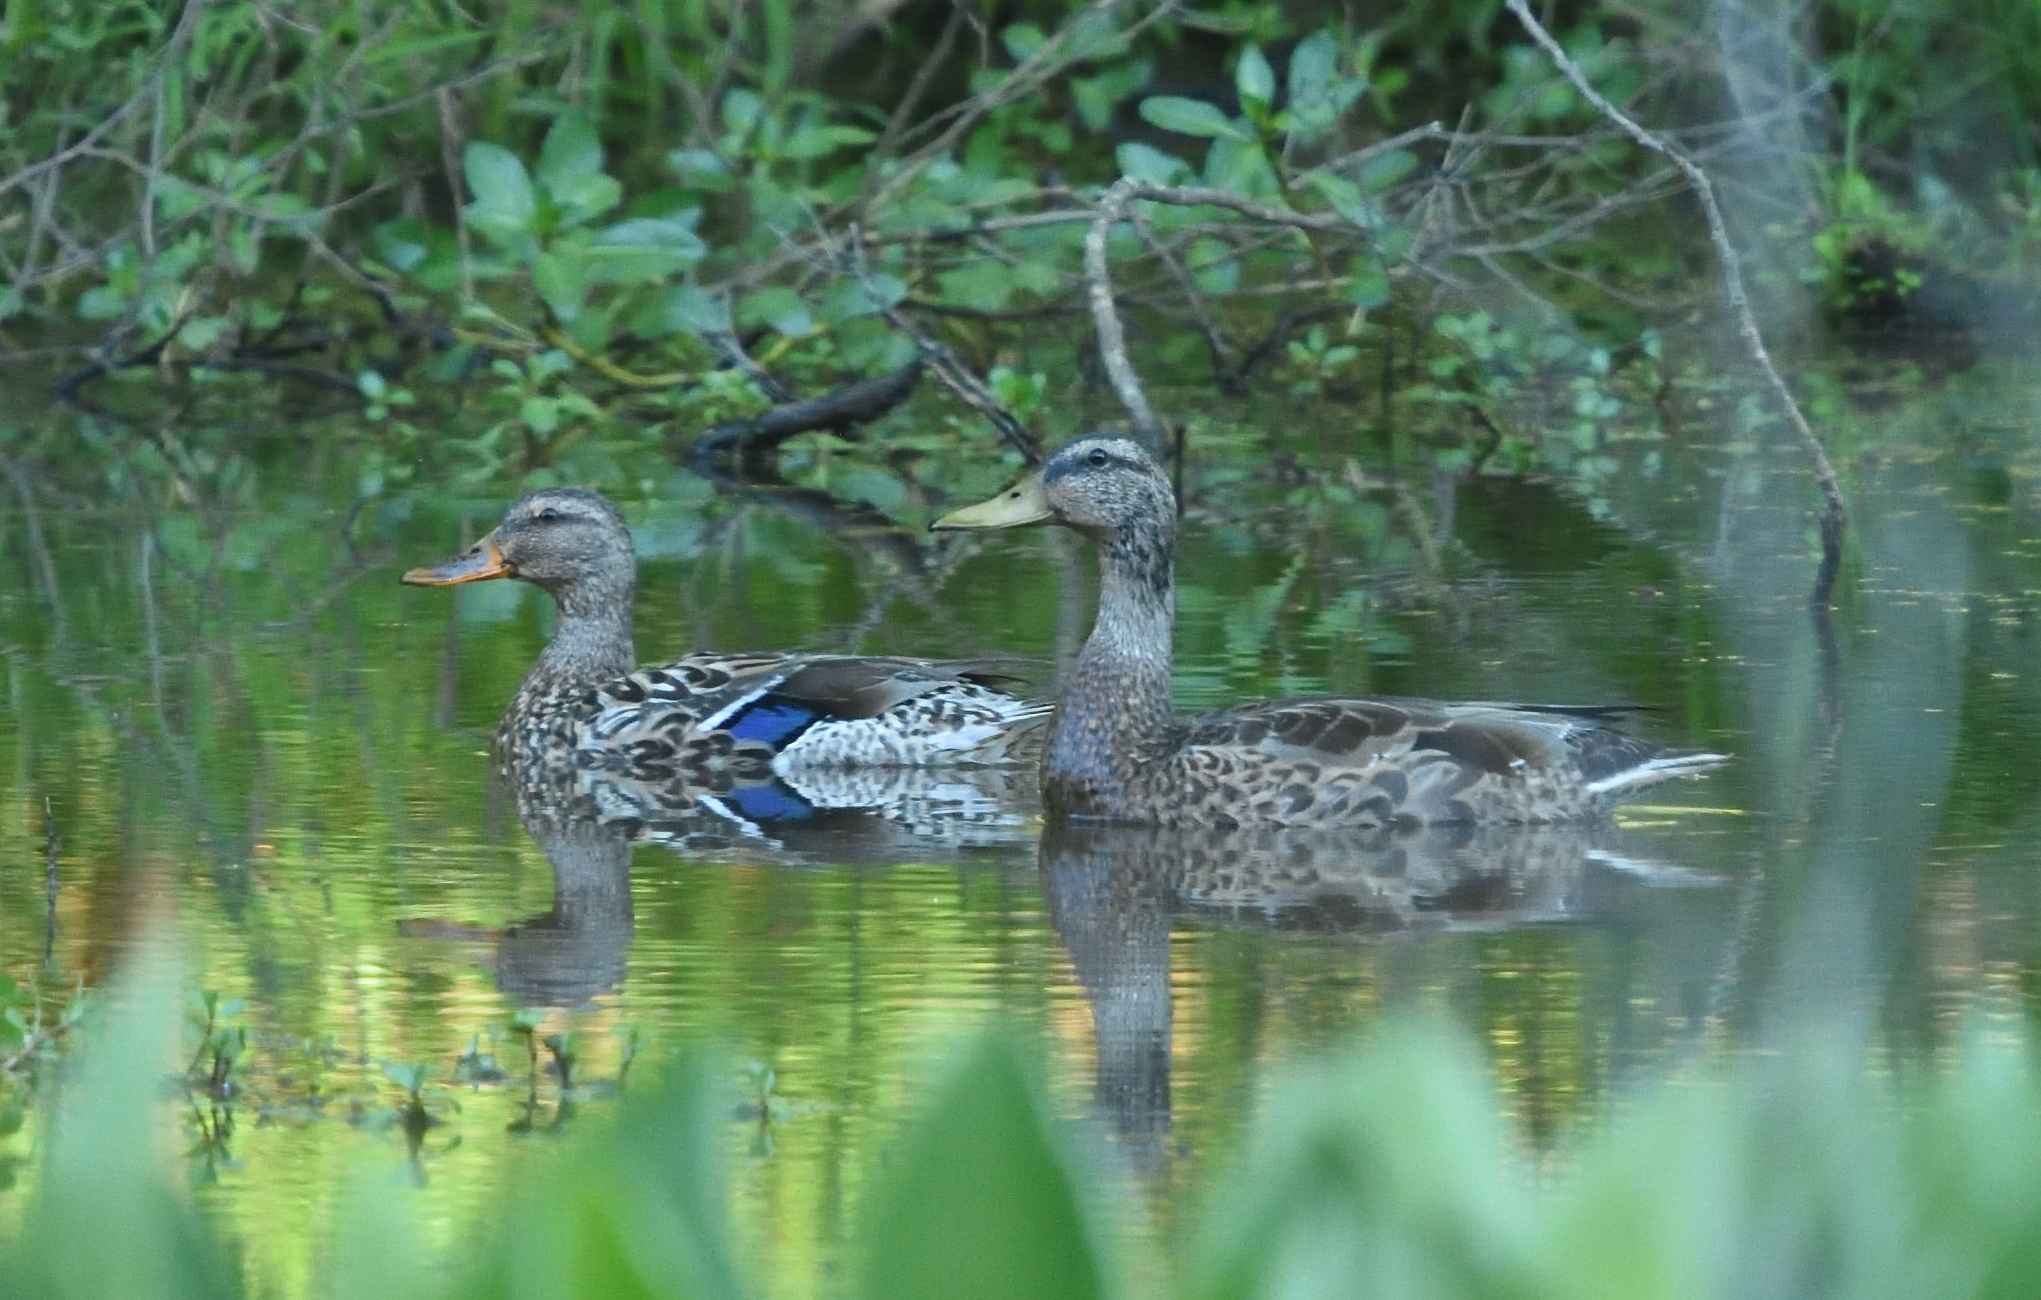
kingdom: Animalia
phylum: Chordata
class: Aves
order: Anseriformes
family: Anatidae
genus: Anas
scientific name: Anas platyrhynchos
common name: Mallard
